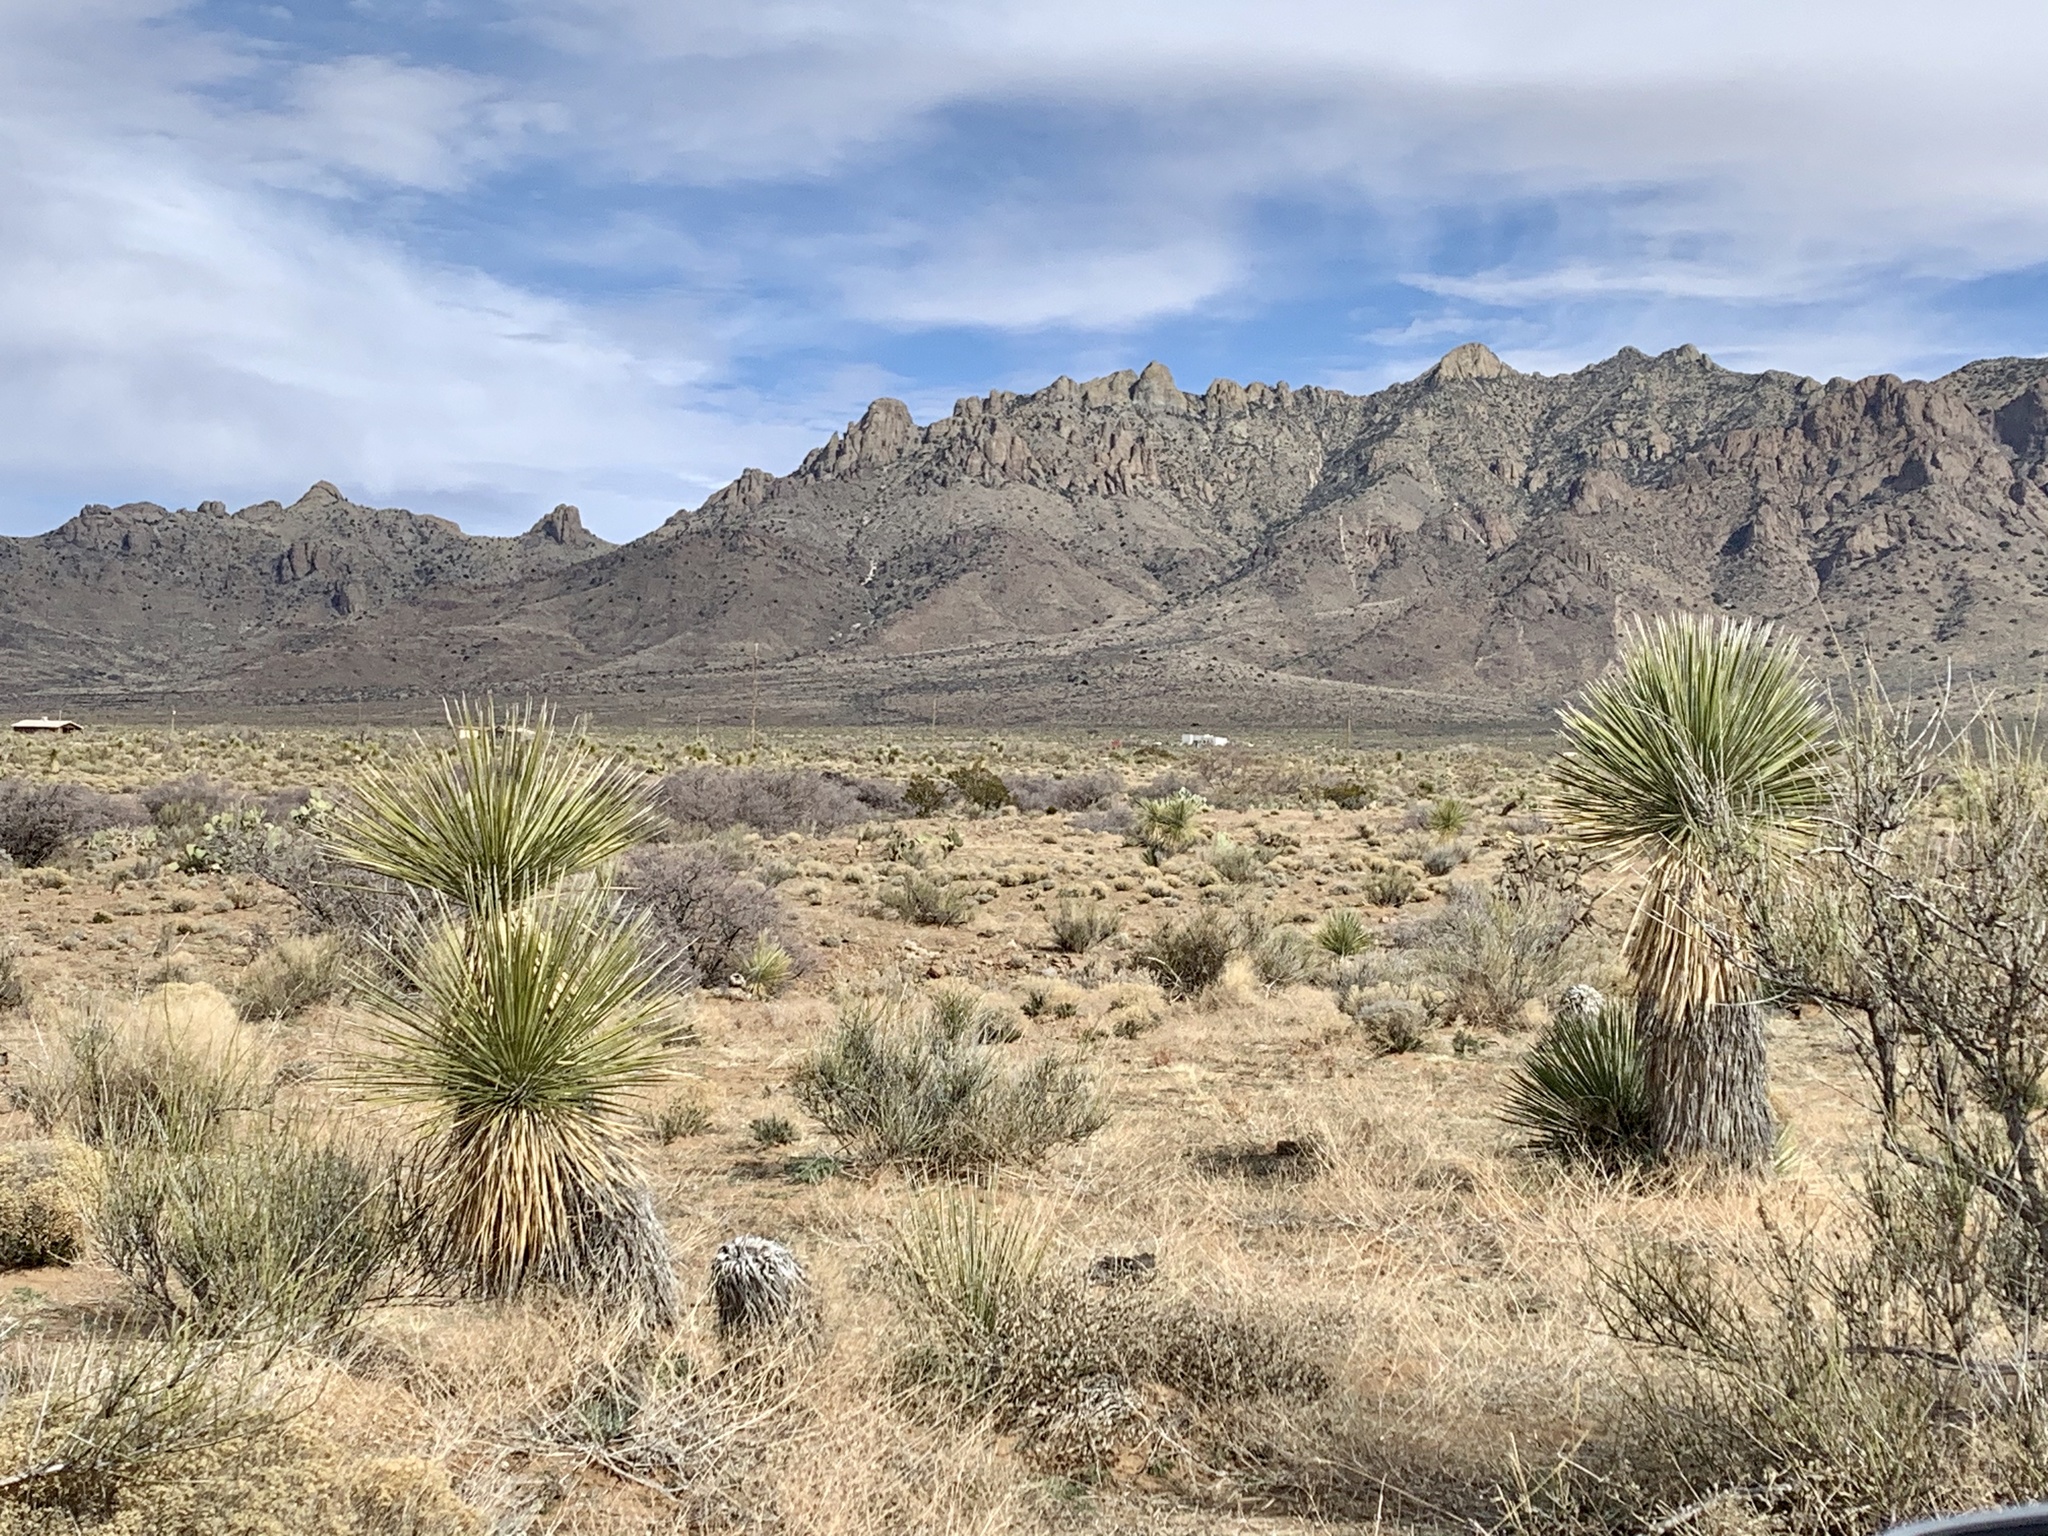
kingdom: Plantae
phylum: Tracheophyta
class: Liliopsida
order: Asparagales
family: Asparagaceae
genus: Yucca
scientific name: Yucca elata
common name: Palmella
